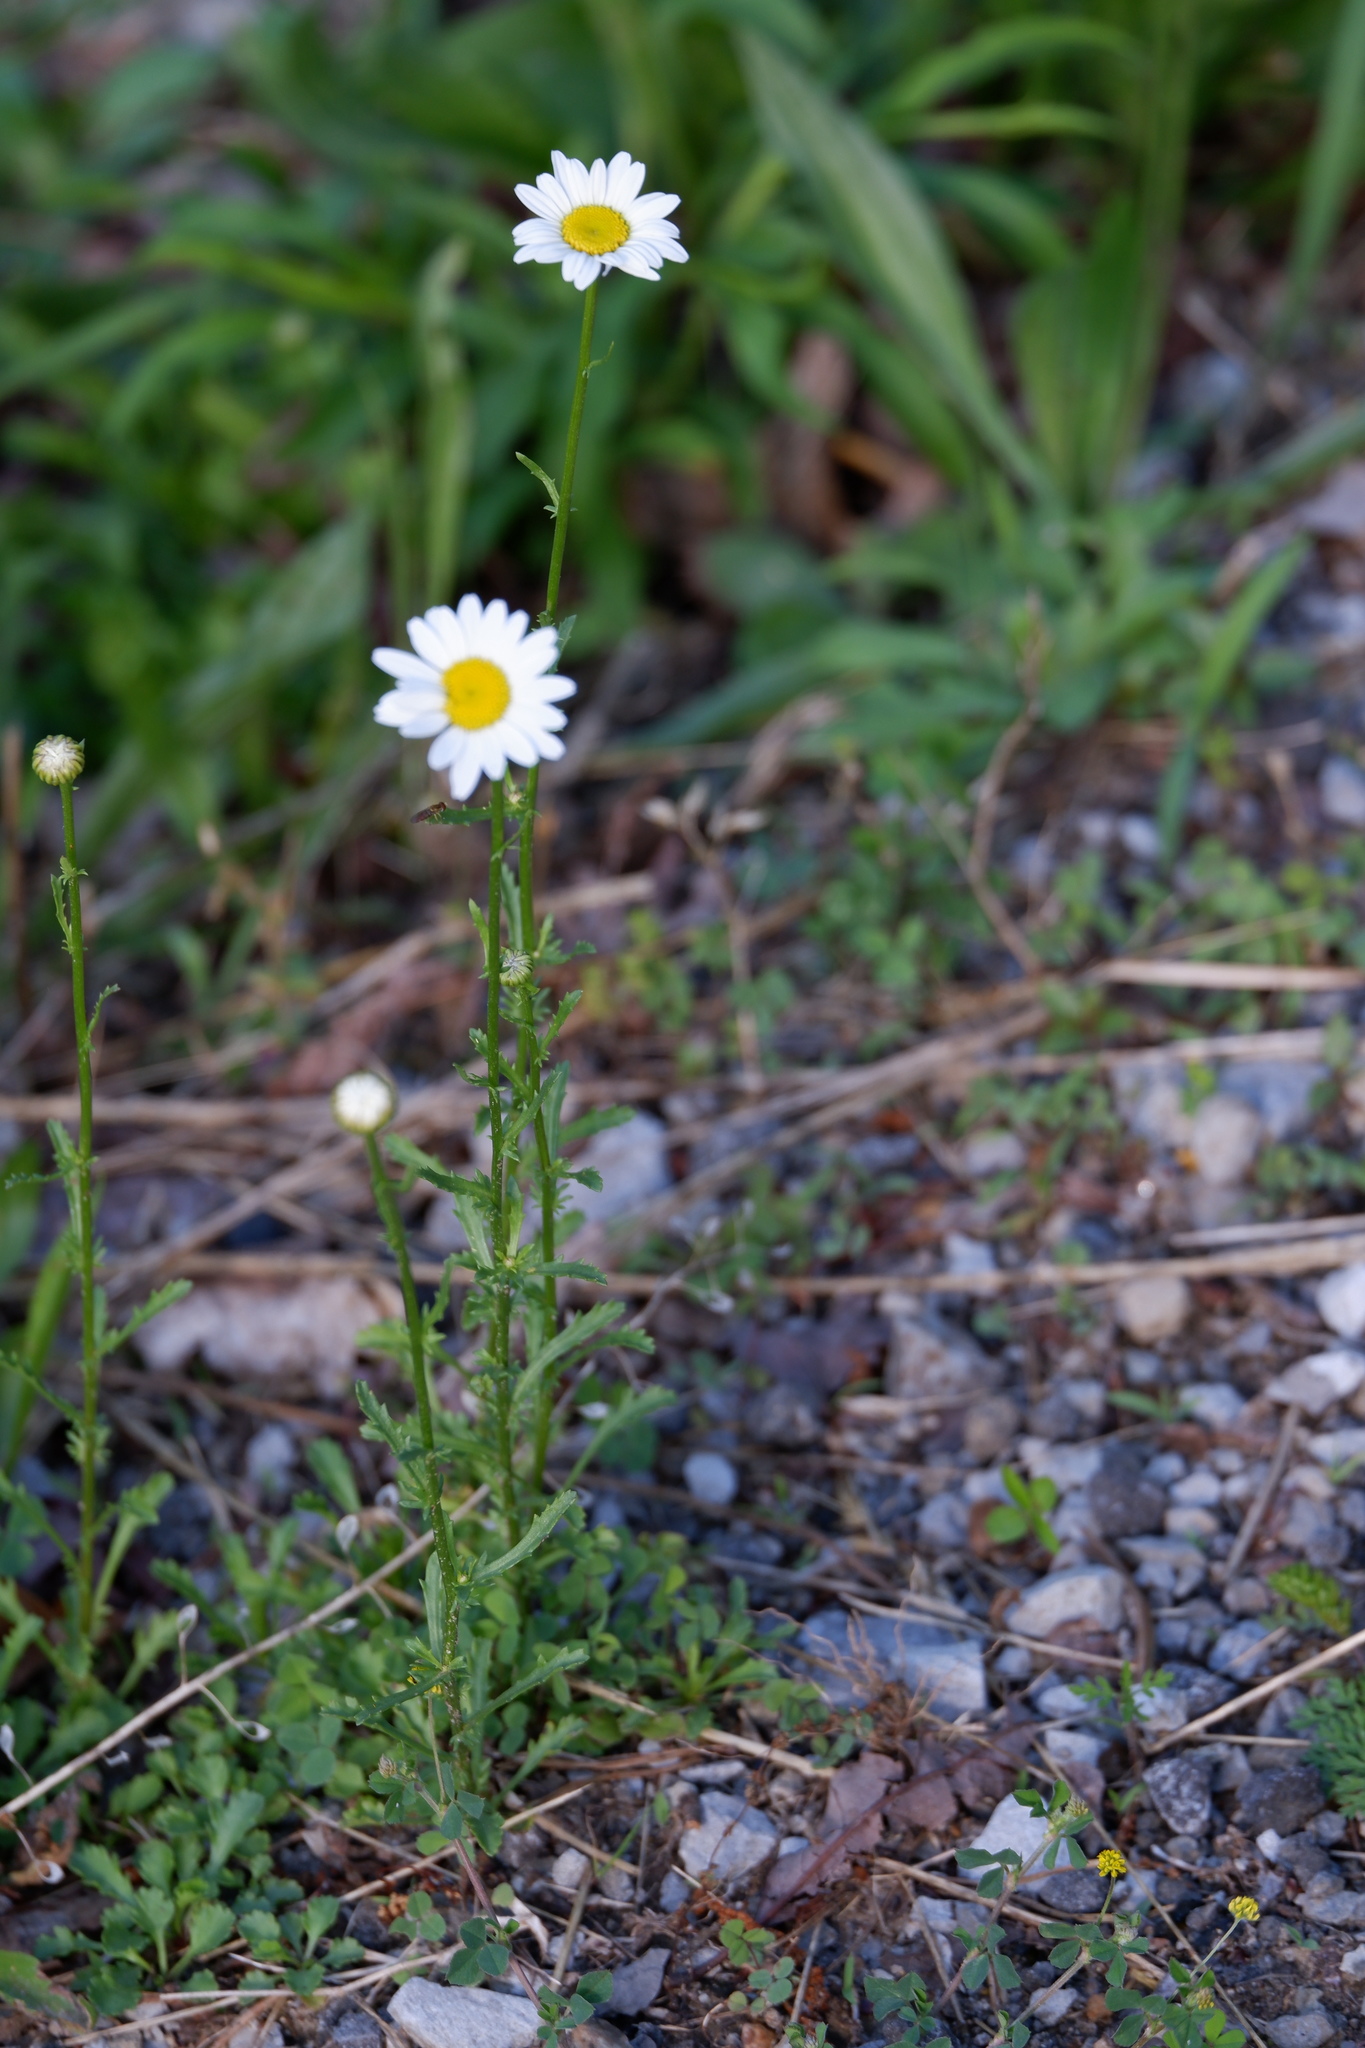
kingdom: Plantae
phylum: Tracheophyta
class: Magnoliopsida
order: Asterales
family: Asteraceae
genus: Leucanthemum
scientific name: Leucanthemum vulgare
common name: Oxeye daisy
